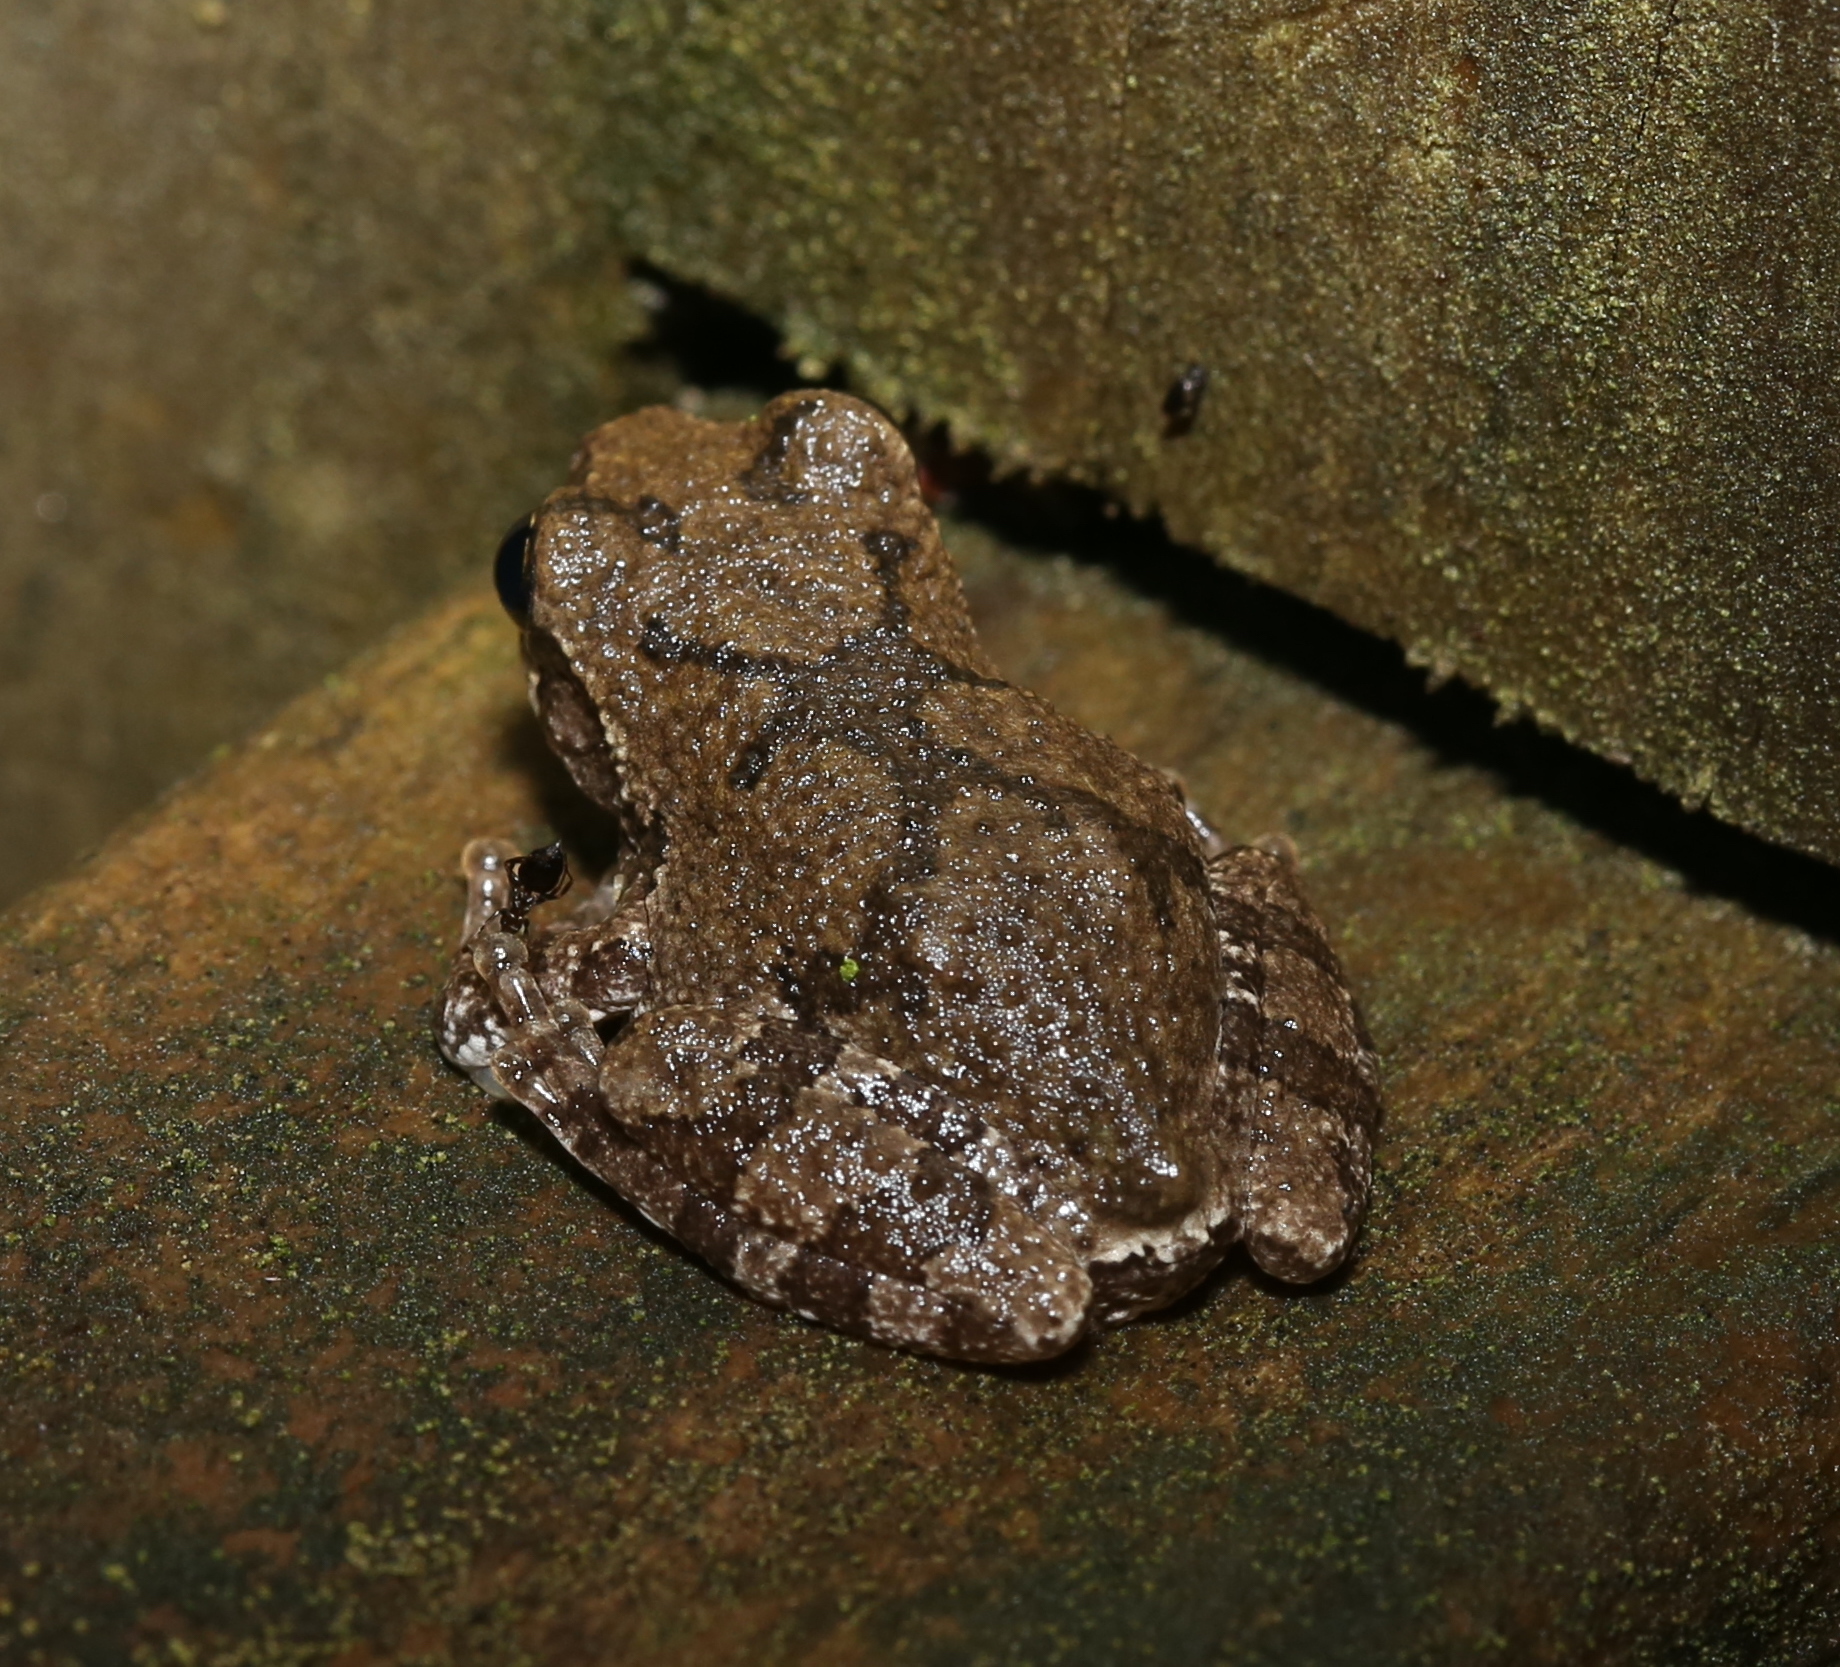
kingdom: Animalia
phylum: Chordata
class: Amphibia
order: Anura
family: Hylidae
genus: Dryophytes
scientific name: Dryophytes chrysoscelis
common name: Cope's gray treefrog
